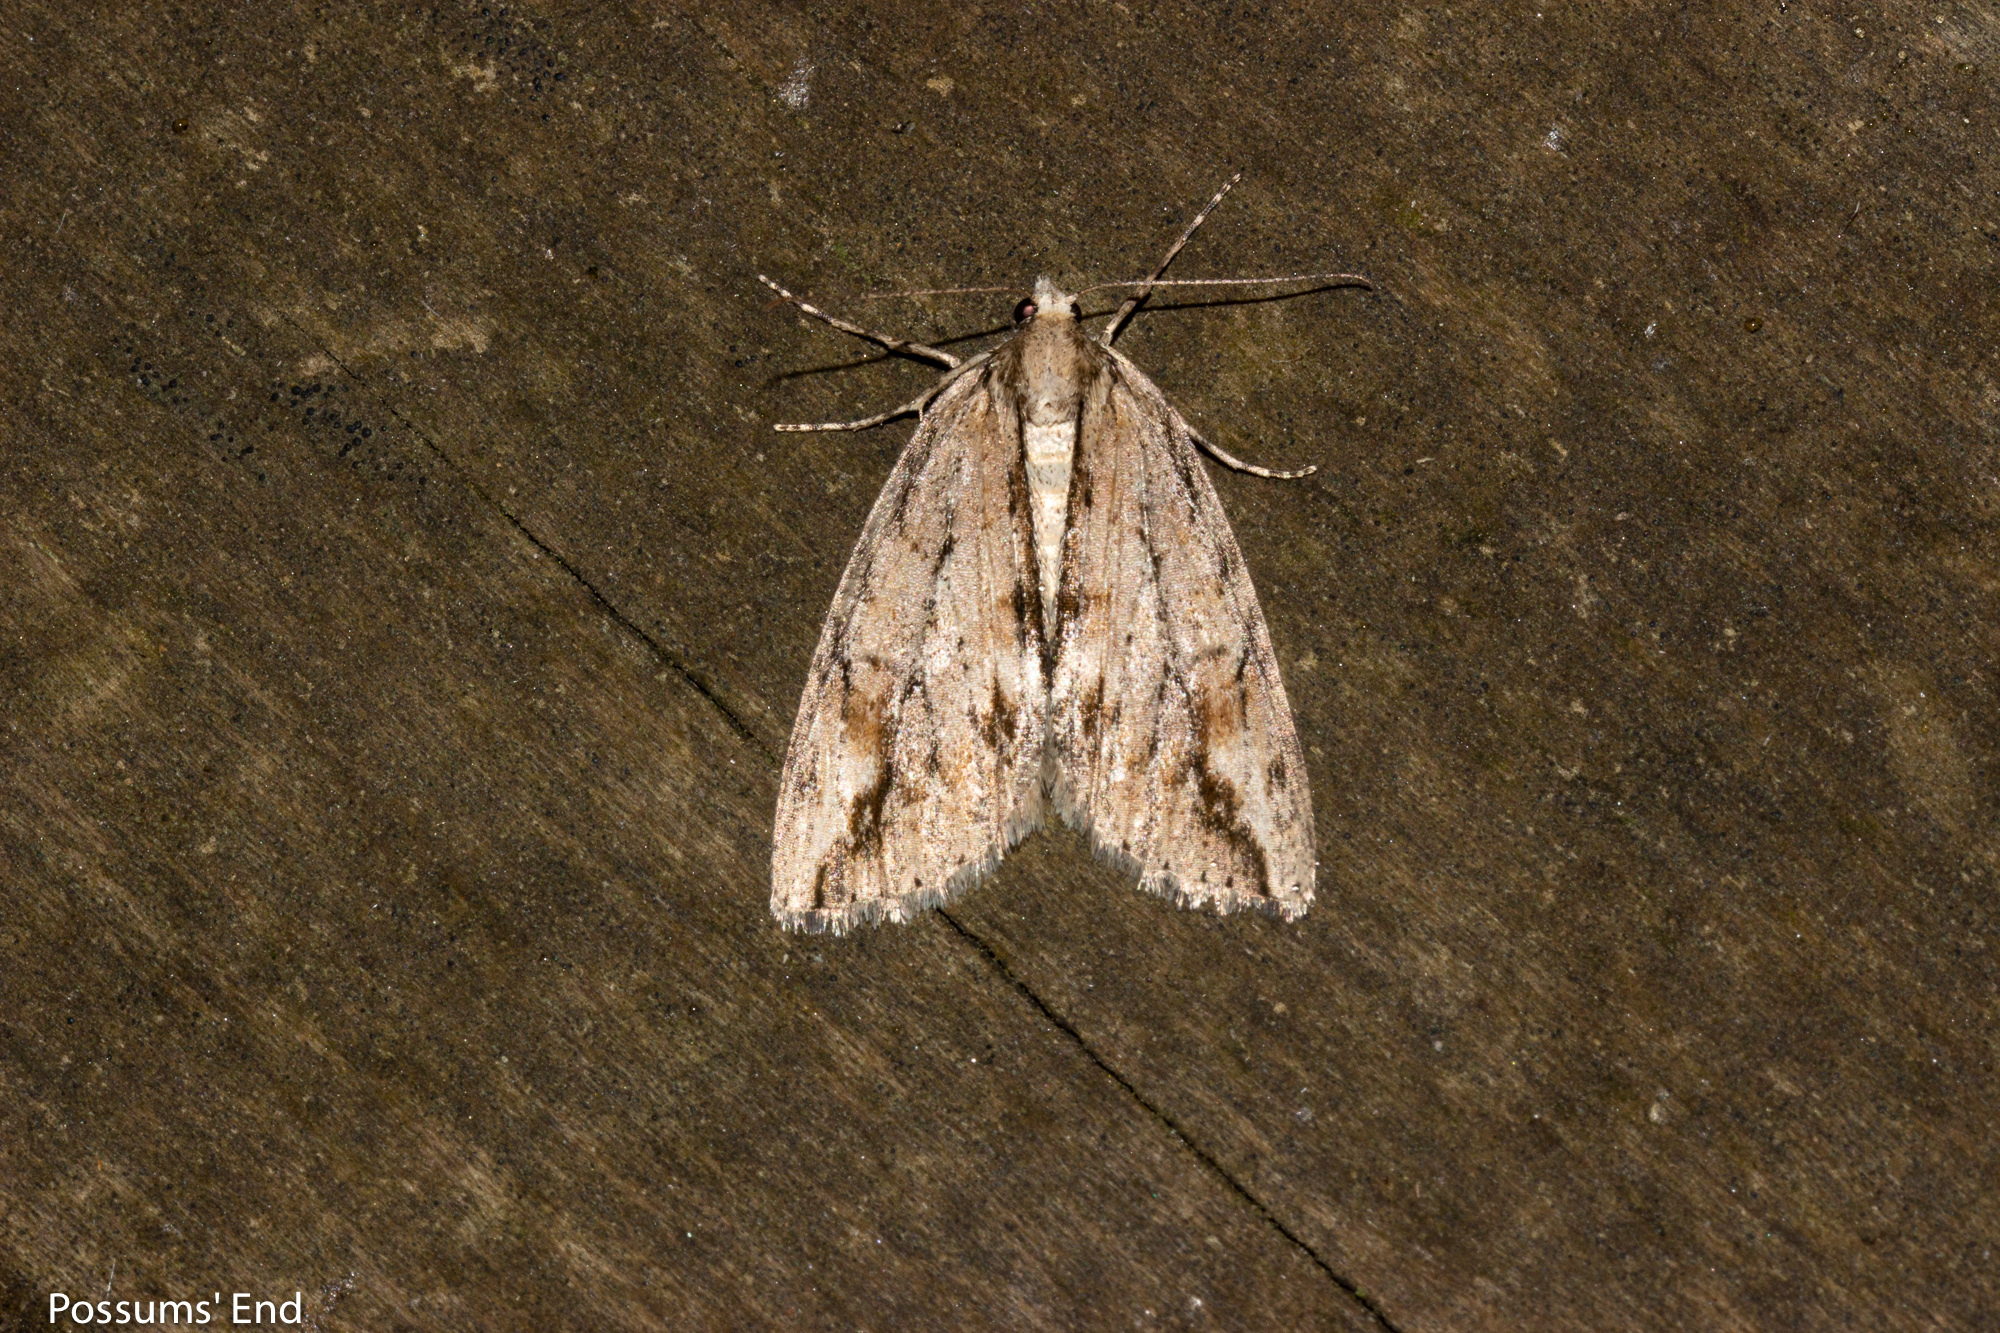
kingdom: Animalia
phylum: Arthropoda
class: Insecta
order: Lepidoptera
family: Geometridae
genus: Pseudocoremia
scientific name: Pseudocoremia lupinata
